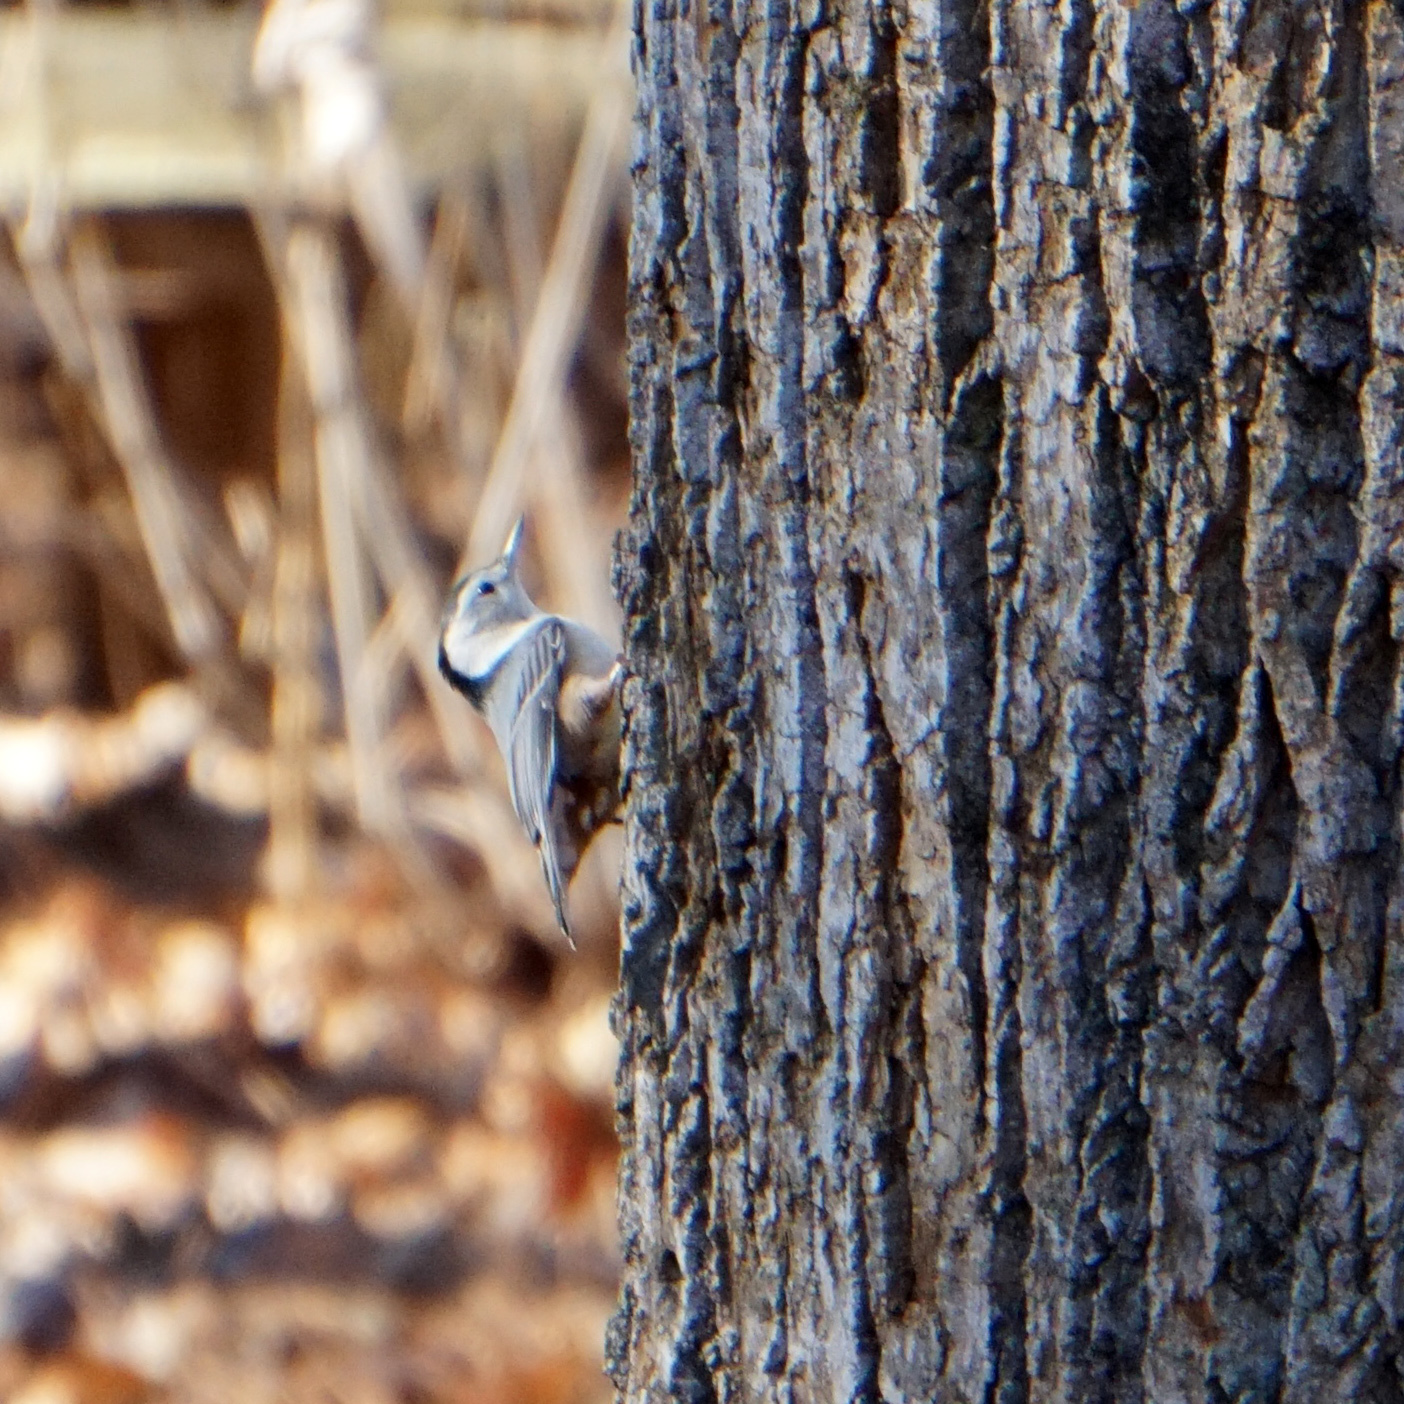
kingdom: Animalia
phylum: Chordata
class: Aves
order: Passeriformes
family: Sittidae
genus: Sitta
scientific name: Sitta carolinensis
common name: White-breasted nuthatch
